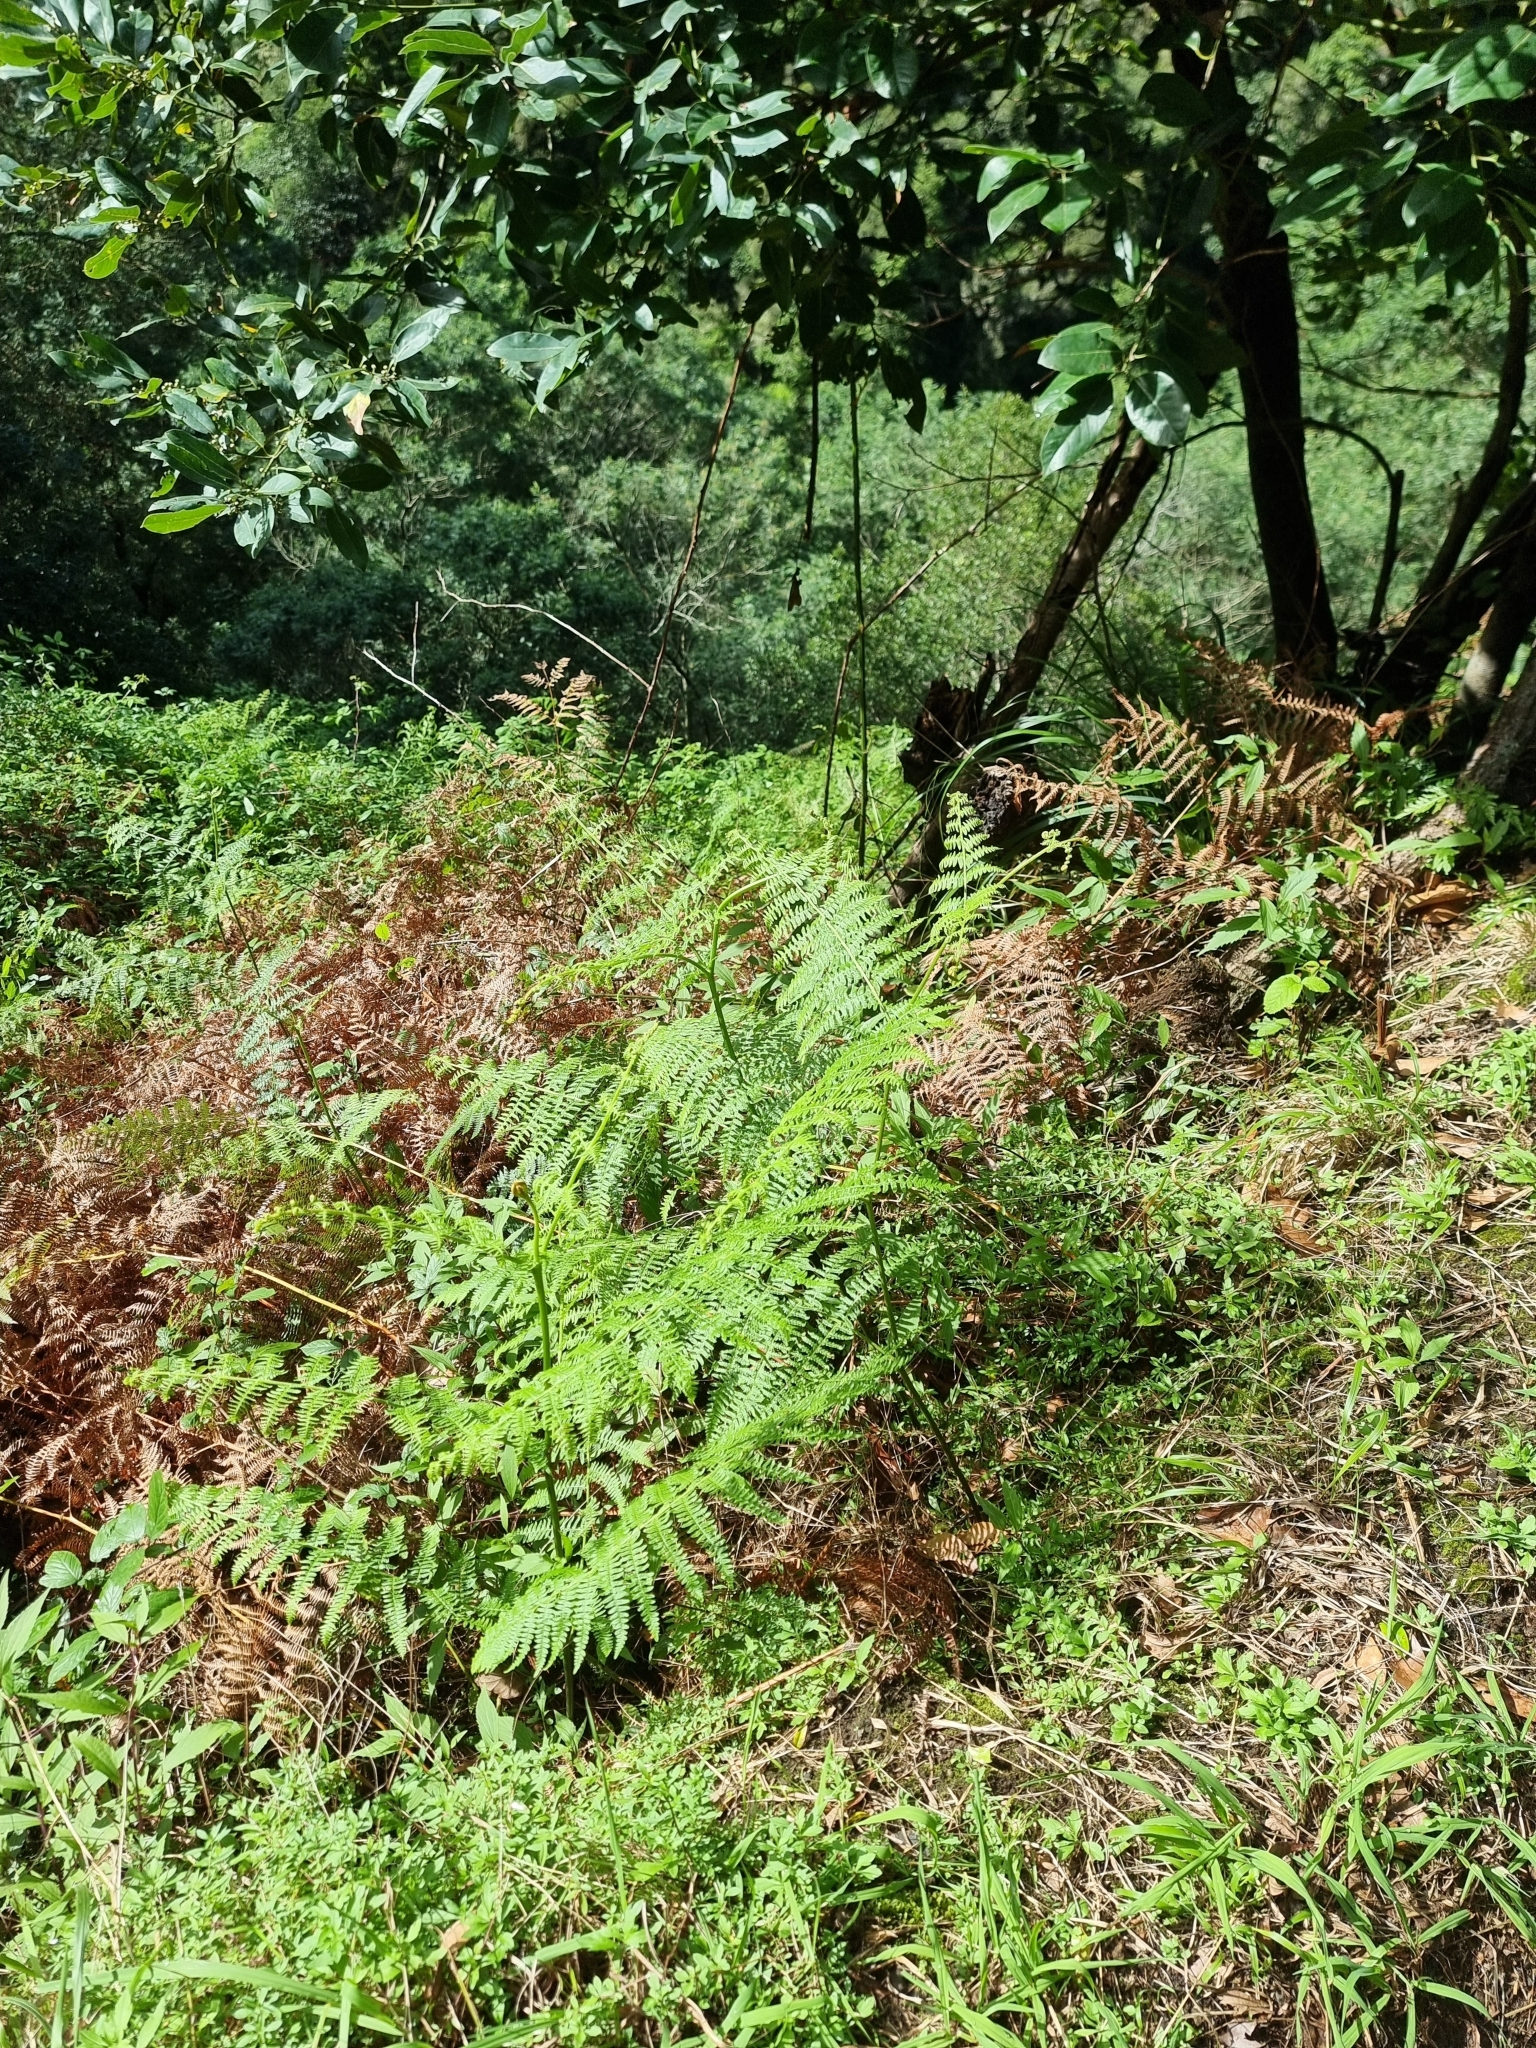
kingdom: Plantae
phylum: Tracheophyta
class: Polypodiopsida
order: Polypodiales
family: Dennstaedtiaceae
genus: Pteridium
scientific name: Pteridium aquilinum
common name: Bracken
